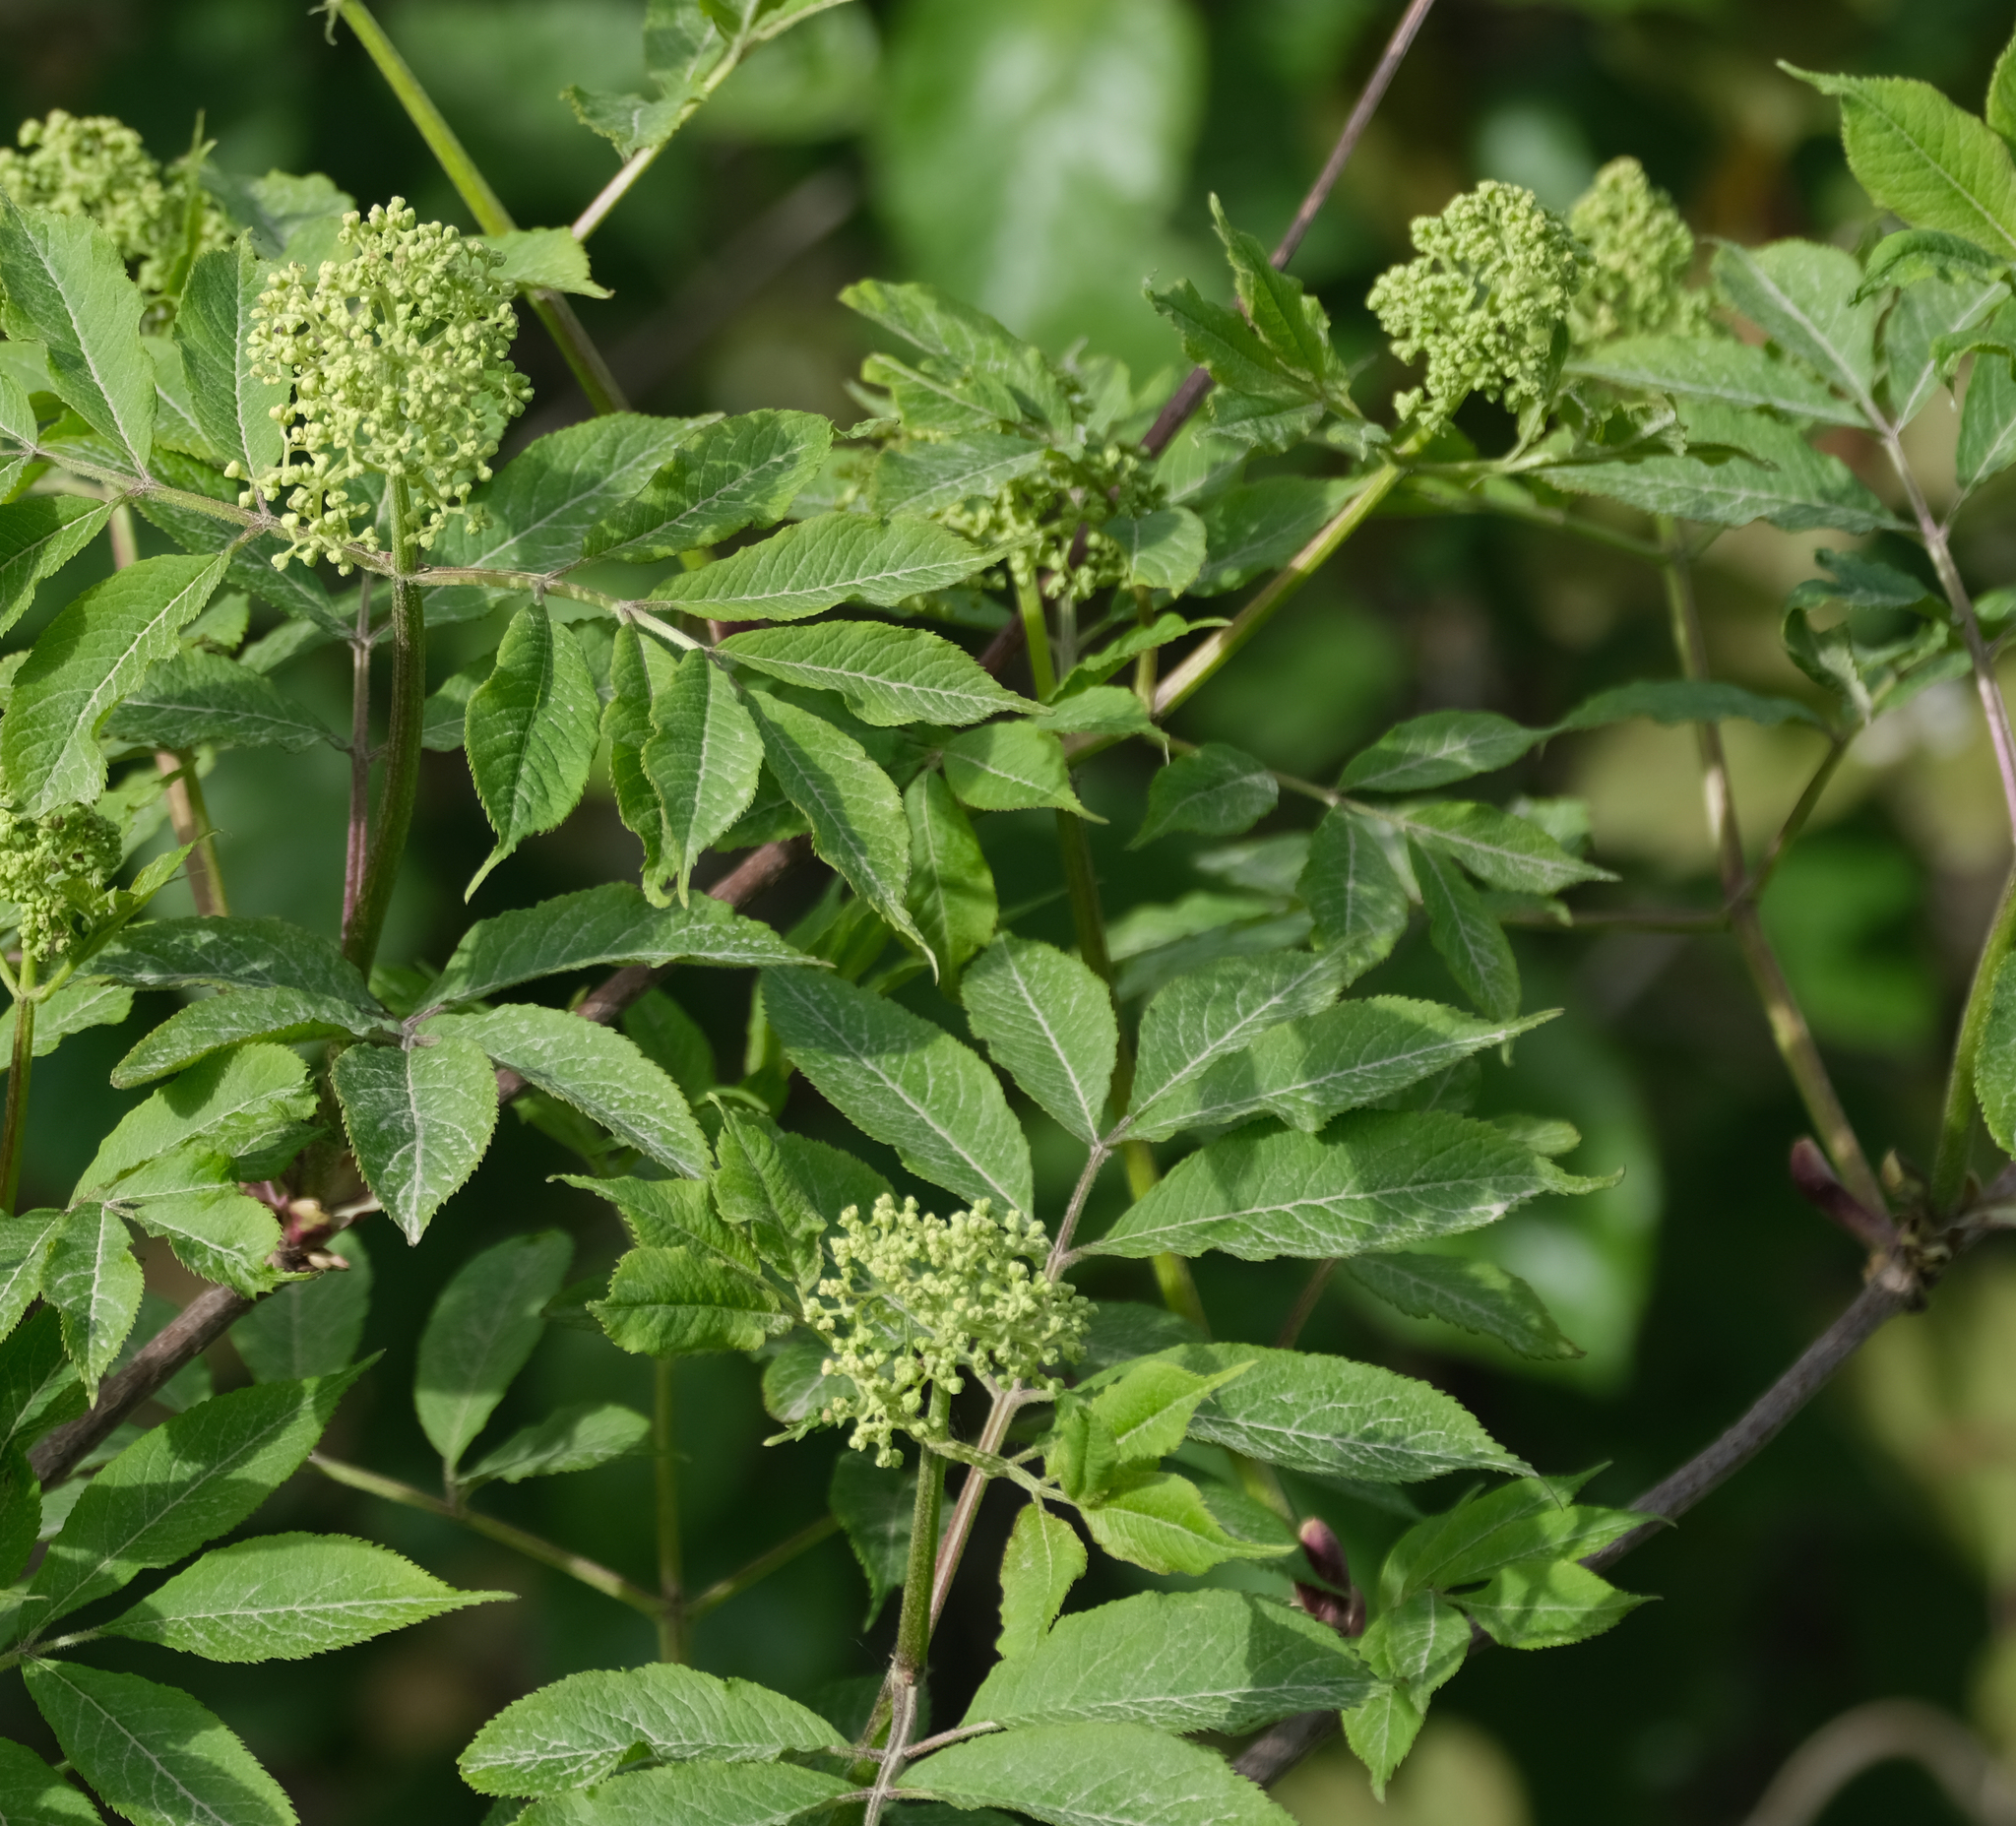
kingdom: Plantae
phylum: Tracheophyta
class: Magnoliopsida
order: Dipsacales
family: Viburnaceae
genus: Sambucus
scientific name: Sambucus racemosa
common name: Red-berried elder
